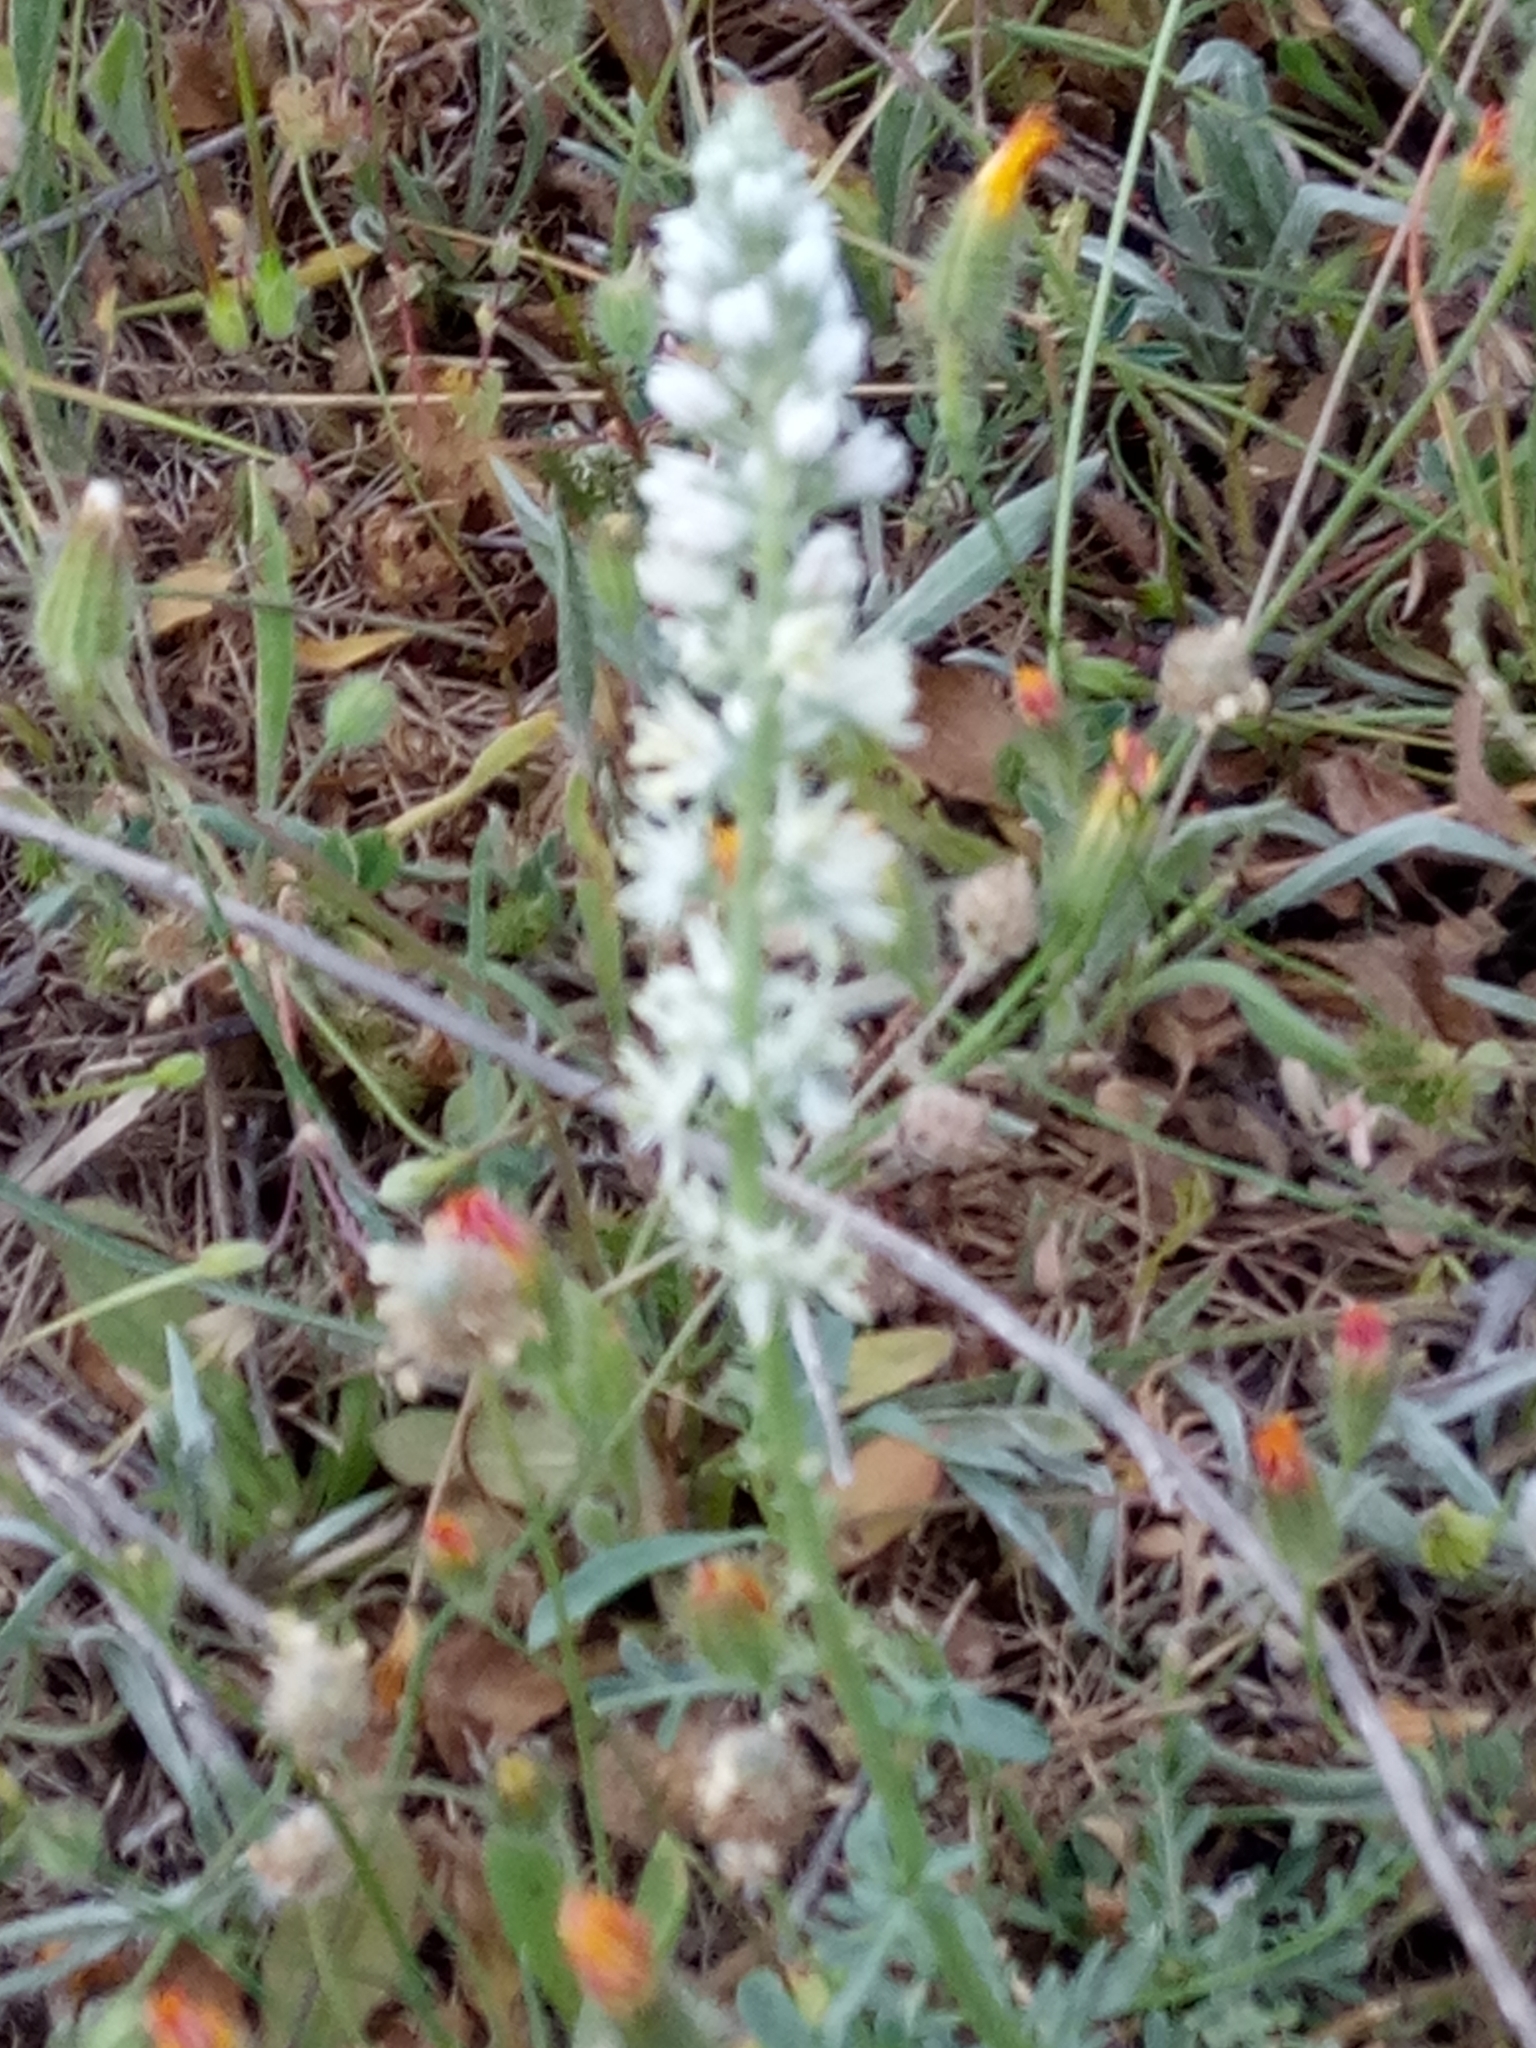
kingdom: Plantae
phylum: Tracheophyta
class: Magnoliopsida
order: Brassicales
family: Resedaceae
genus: Reseda
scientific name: Reseda alba
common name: White mignonette
